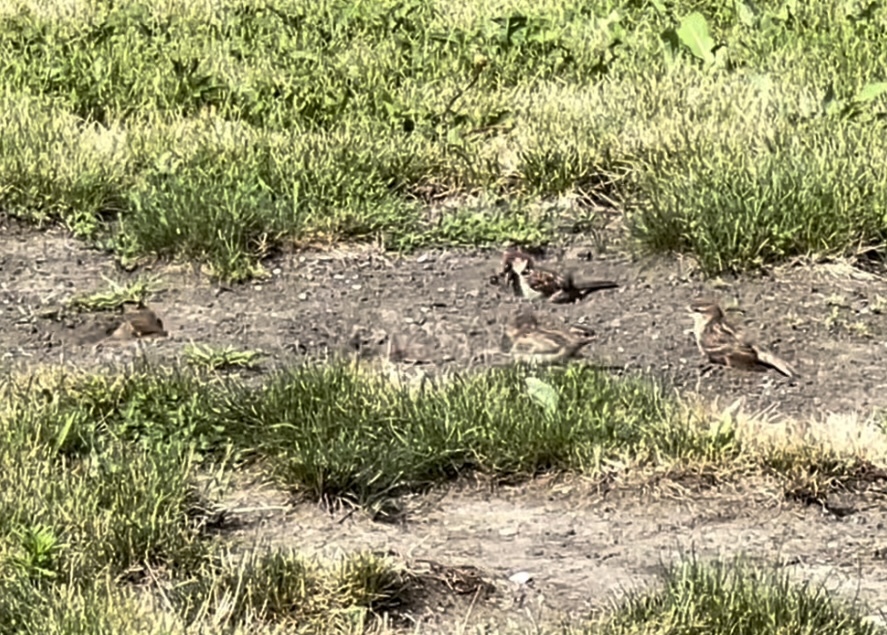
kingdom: Animalia
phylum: Chordata
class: Aves
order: Passeriformes
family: Passeridae
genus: Passer
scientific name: Passer domesticus
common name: House sparrow
